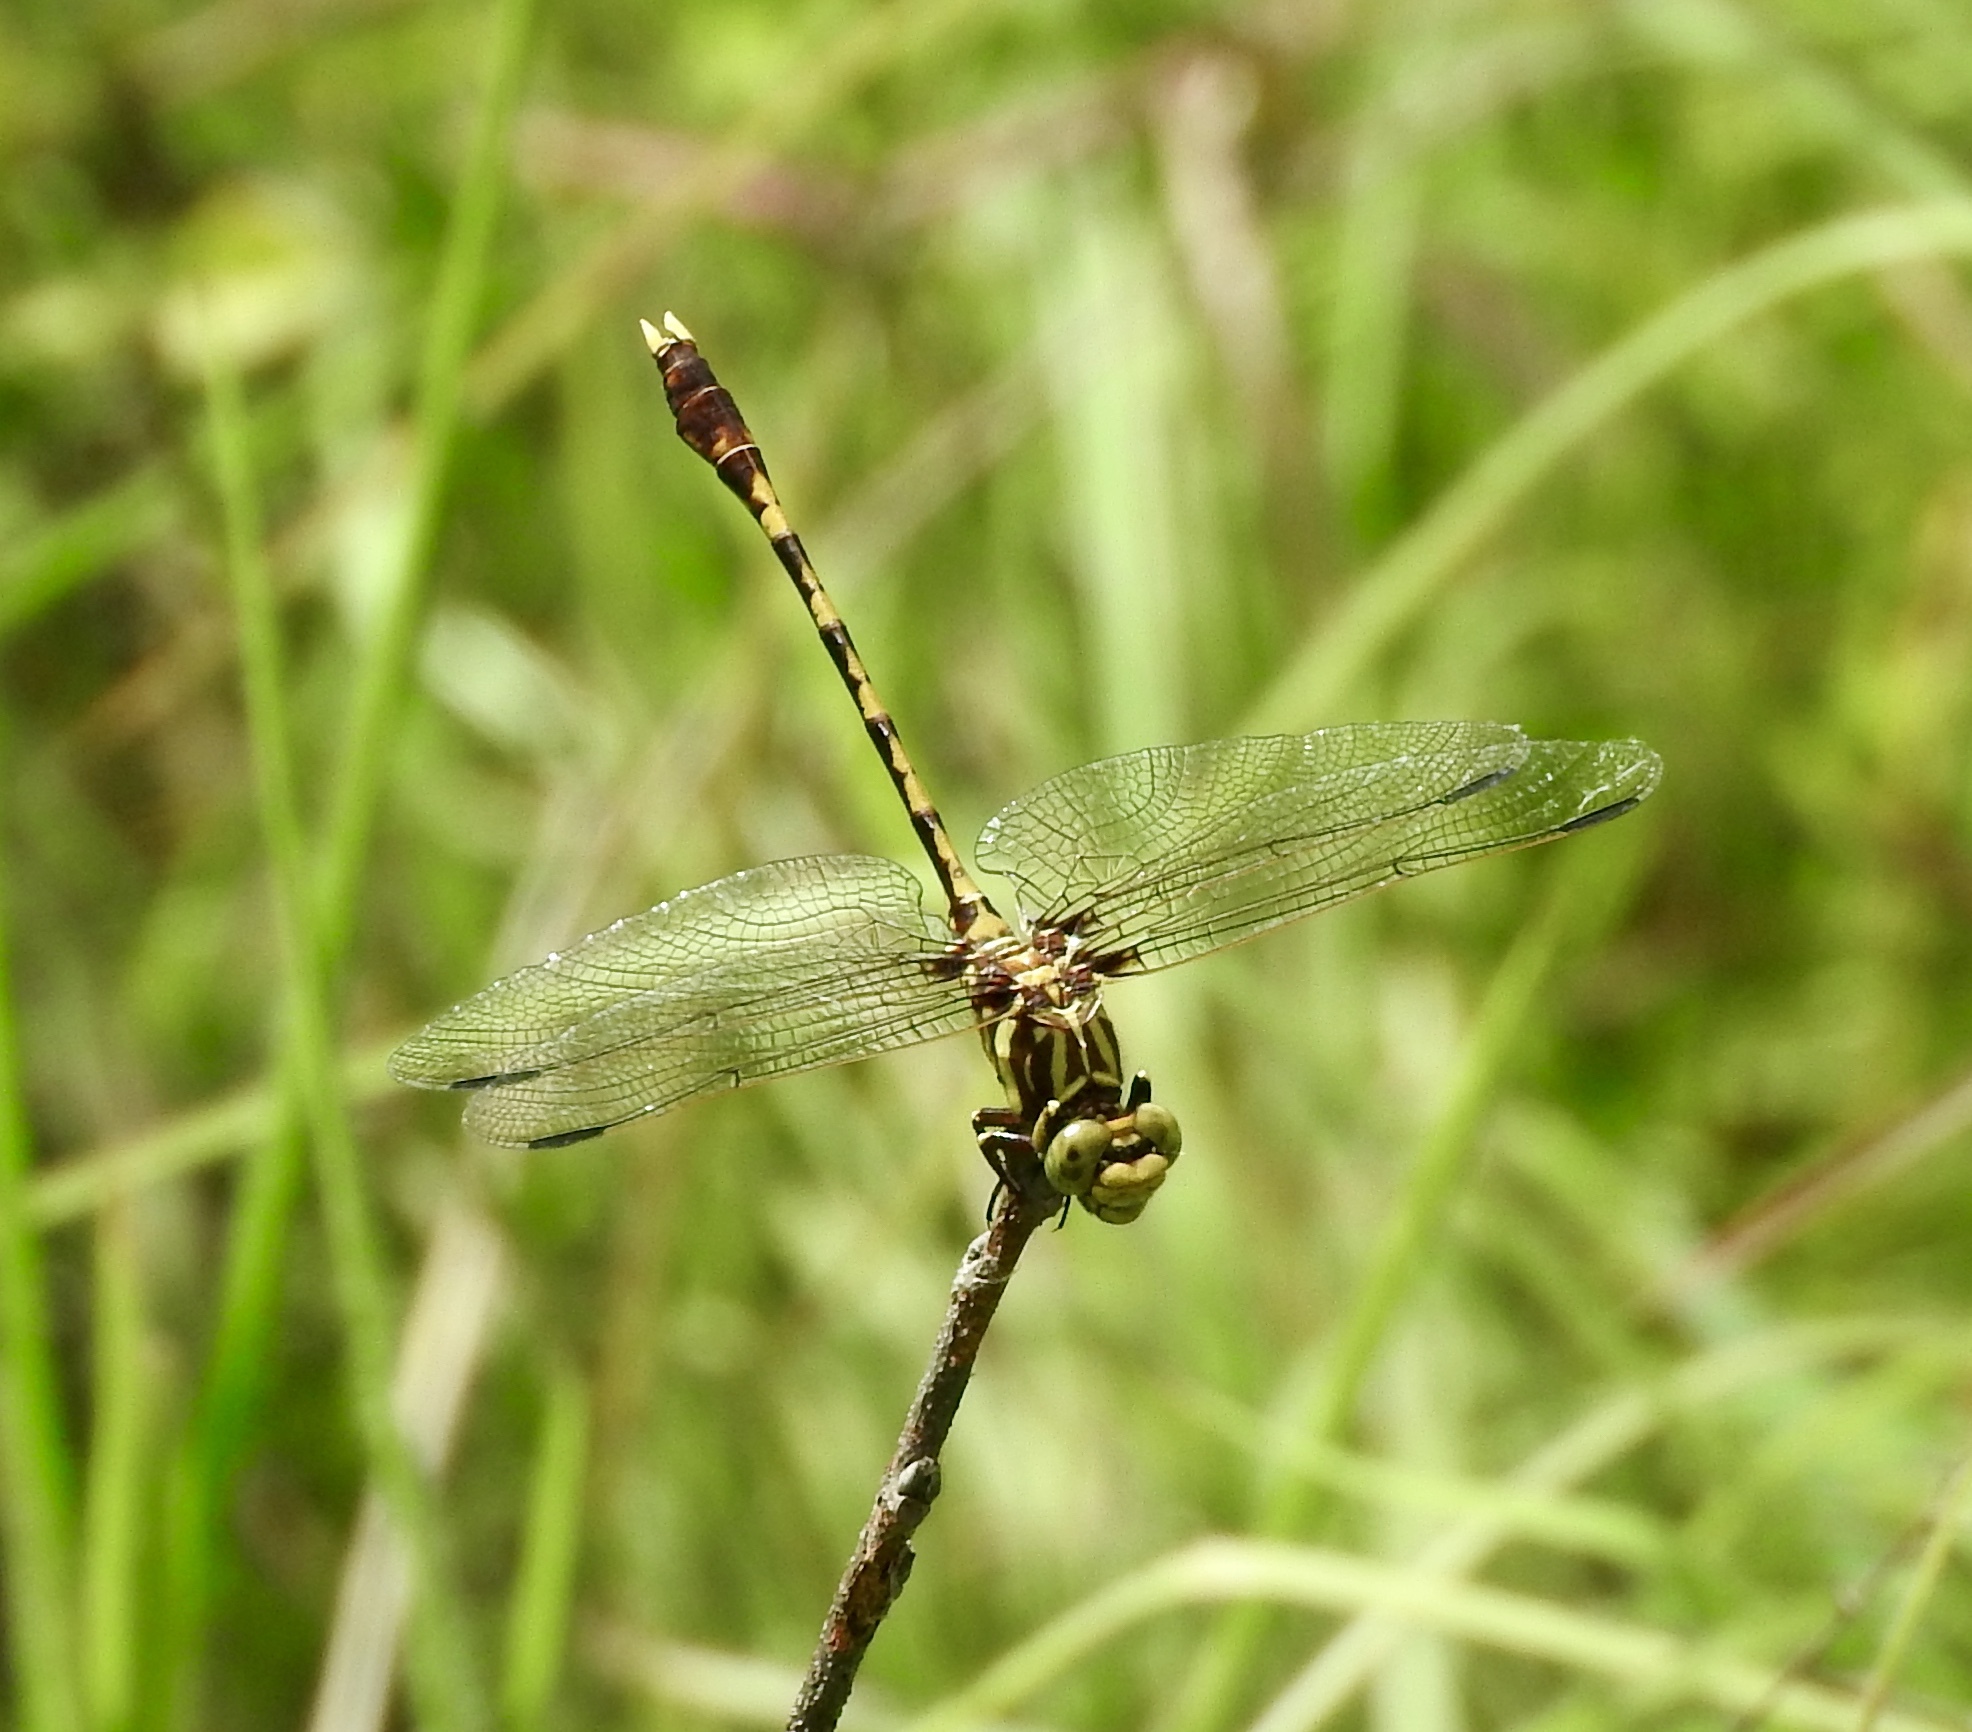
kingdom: Animalia
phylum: Arthropoda
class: Insecta
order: Odonata
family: Gomphidae
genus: Progomphus
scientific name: Progomphus obscurus
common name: Common sanddragon
